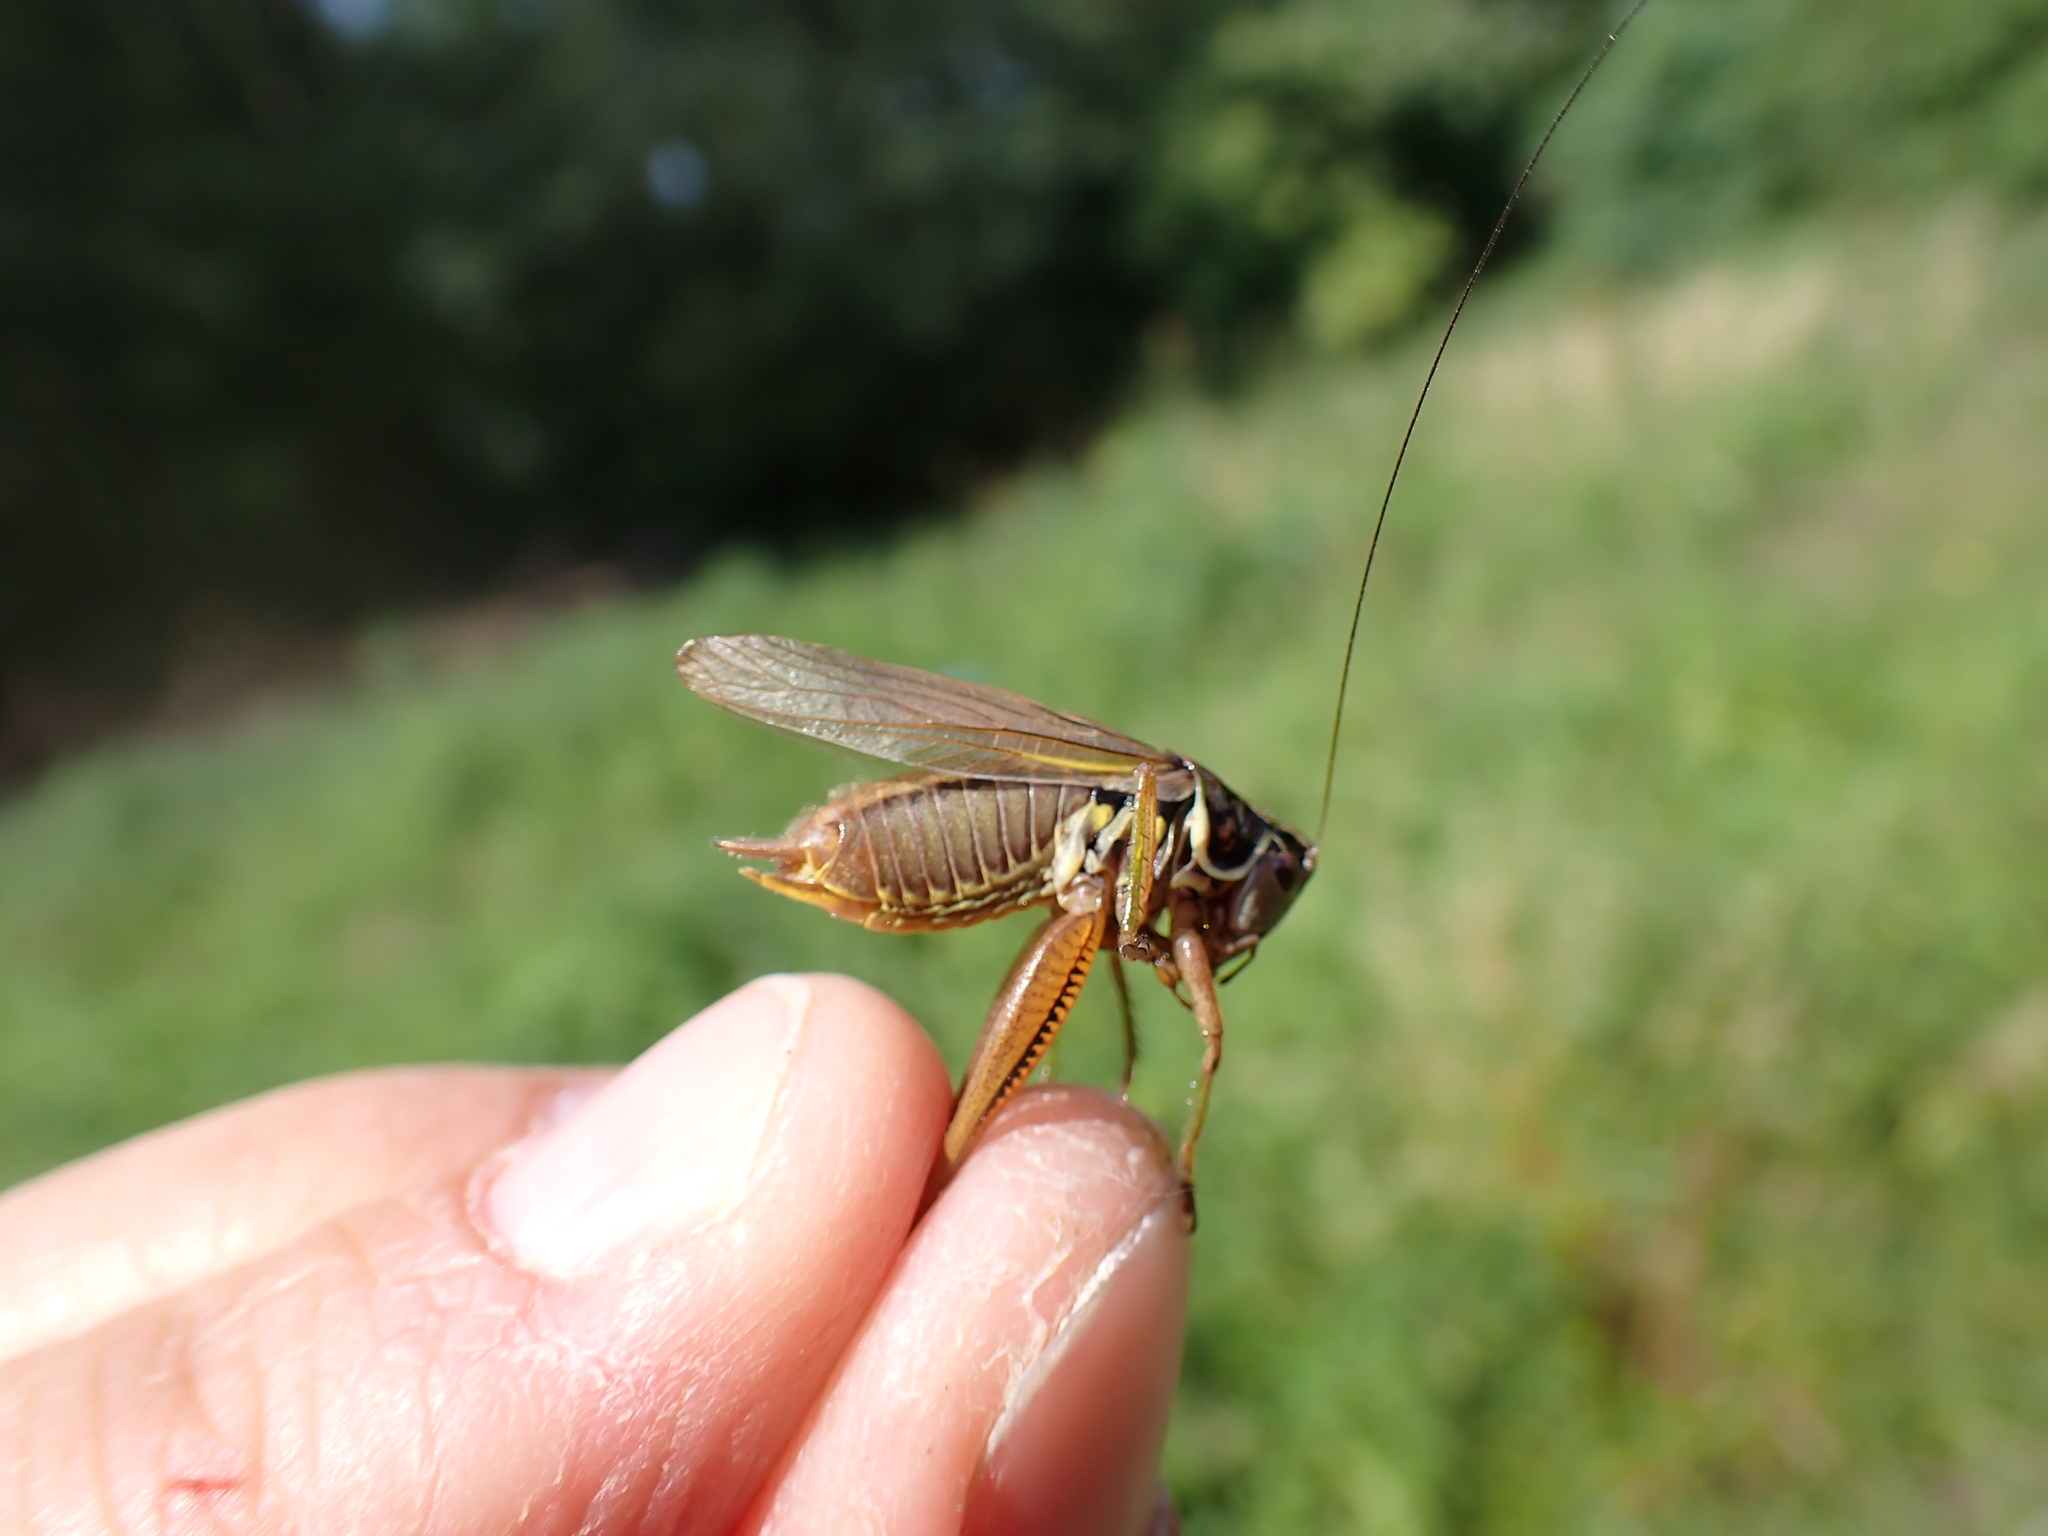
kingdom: Animalia
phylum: Arthropoda
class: Insecta
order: Orthoptera
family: Tettigoniidae
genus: Roeseliana
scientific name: Roeseliana roeselii
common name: Roesel's bush cricket
